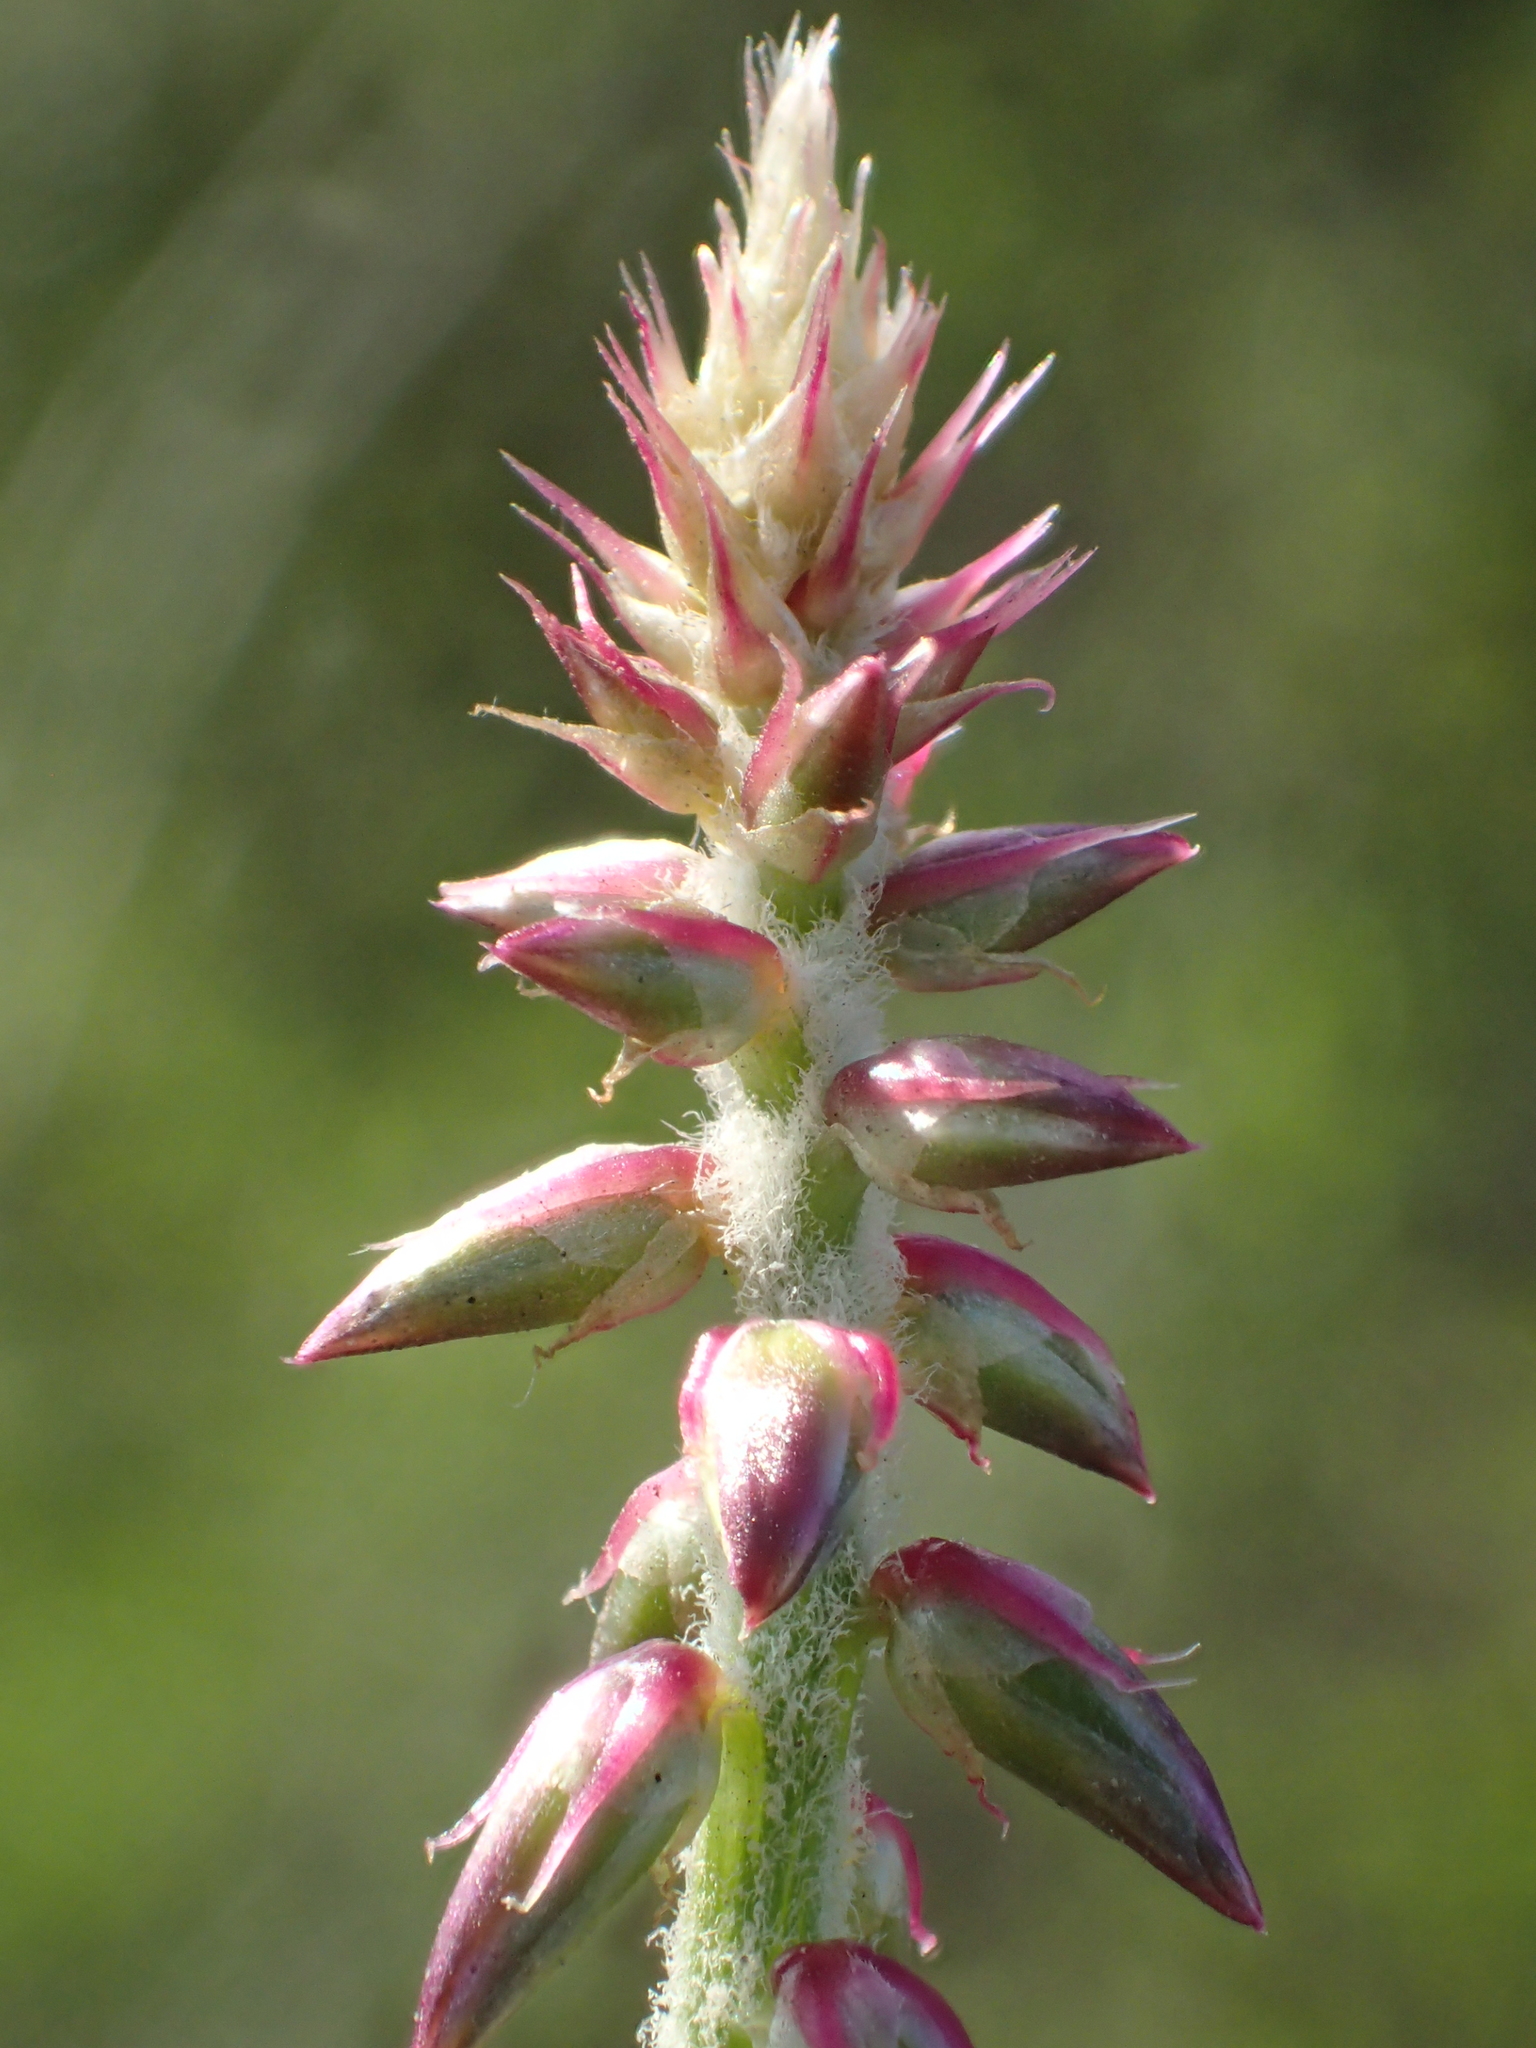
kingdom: Plantae
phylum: Tracheophyta
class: Magnoliopsida
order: Caryophyllales
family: Amaranthaceae
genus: Achyranthes
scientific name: Achyranthes aspera
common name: Devil's horsewhip
